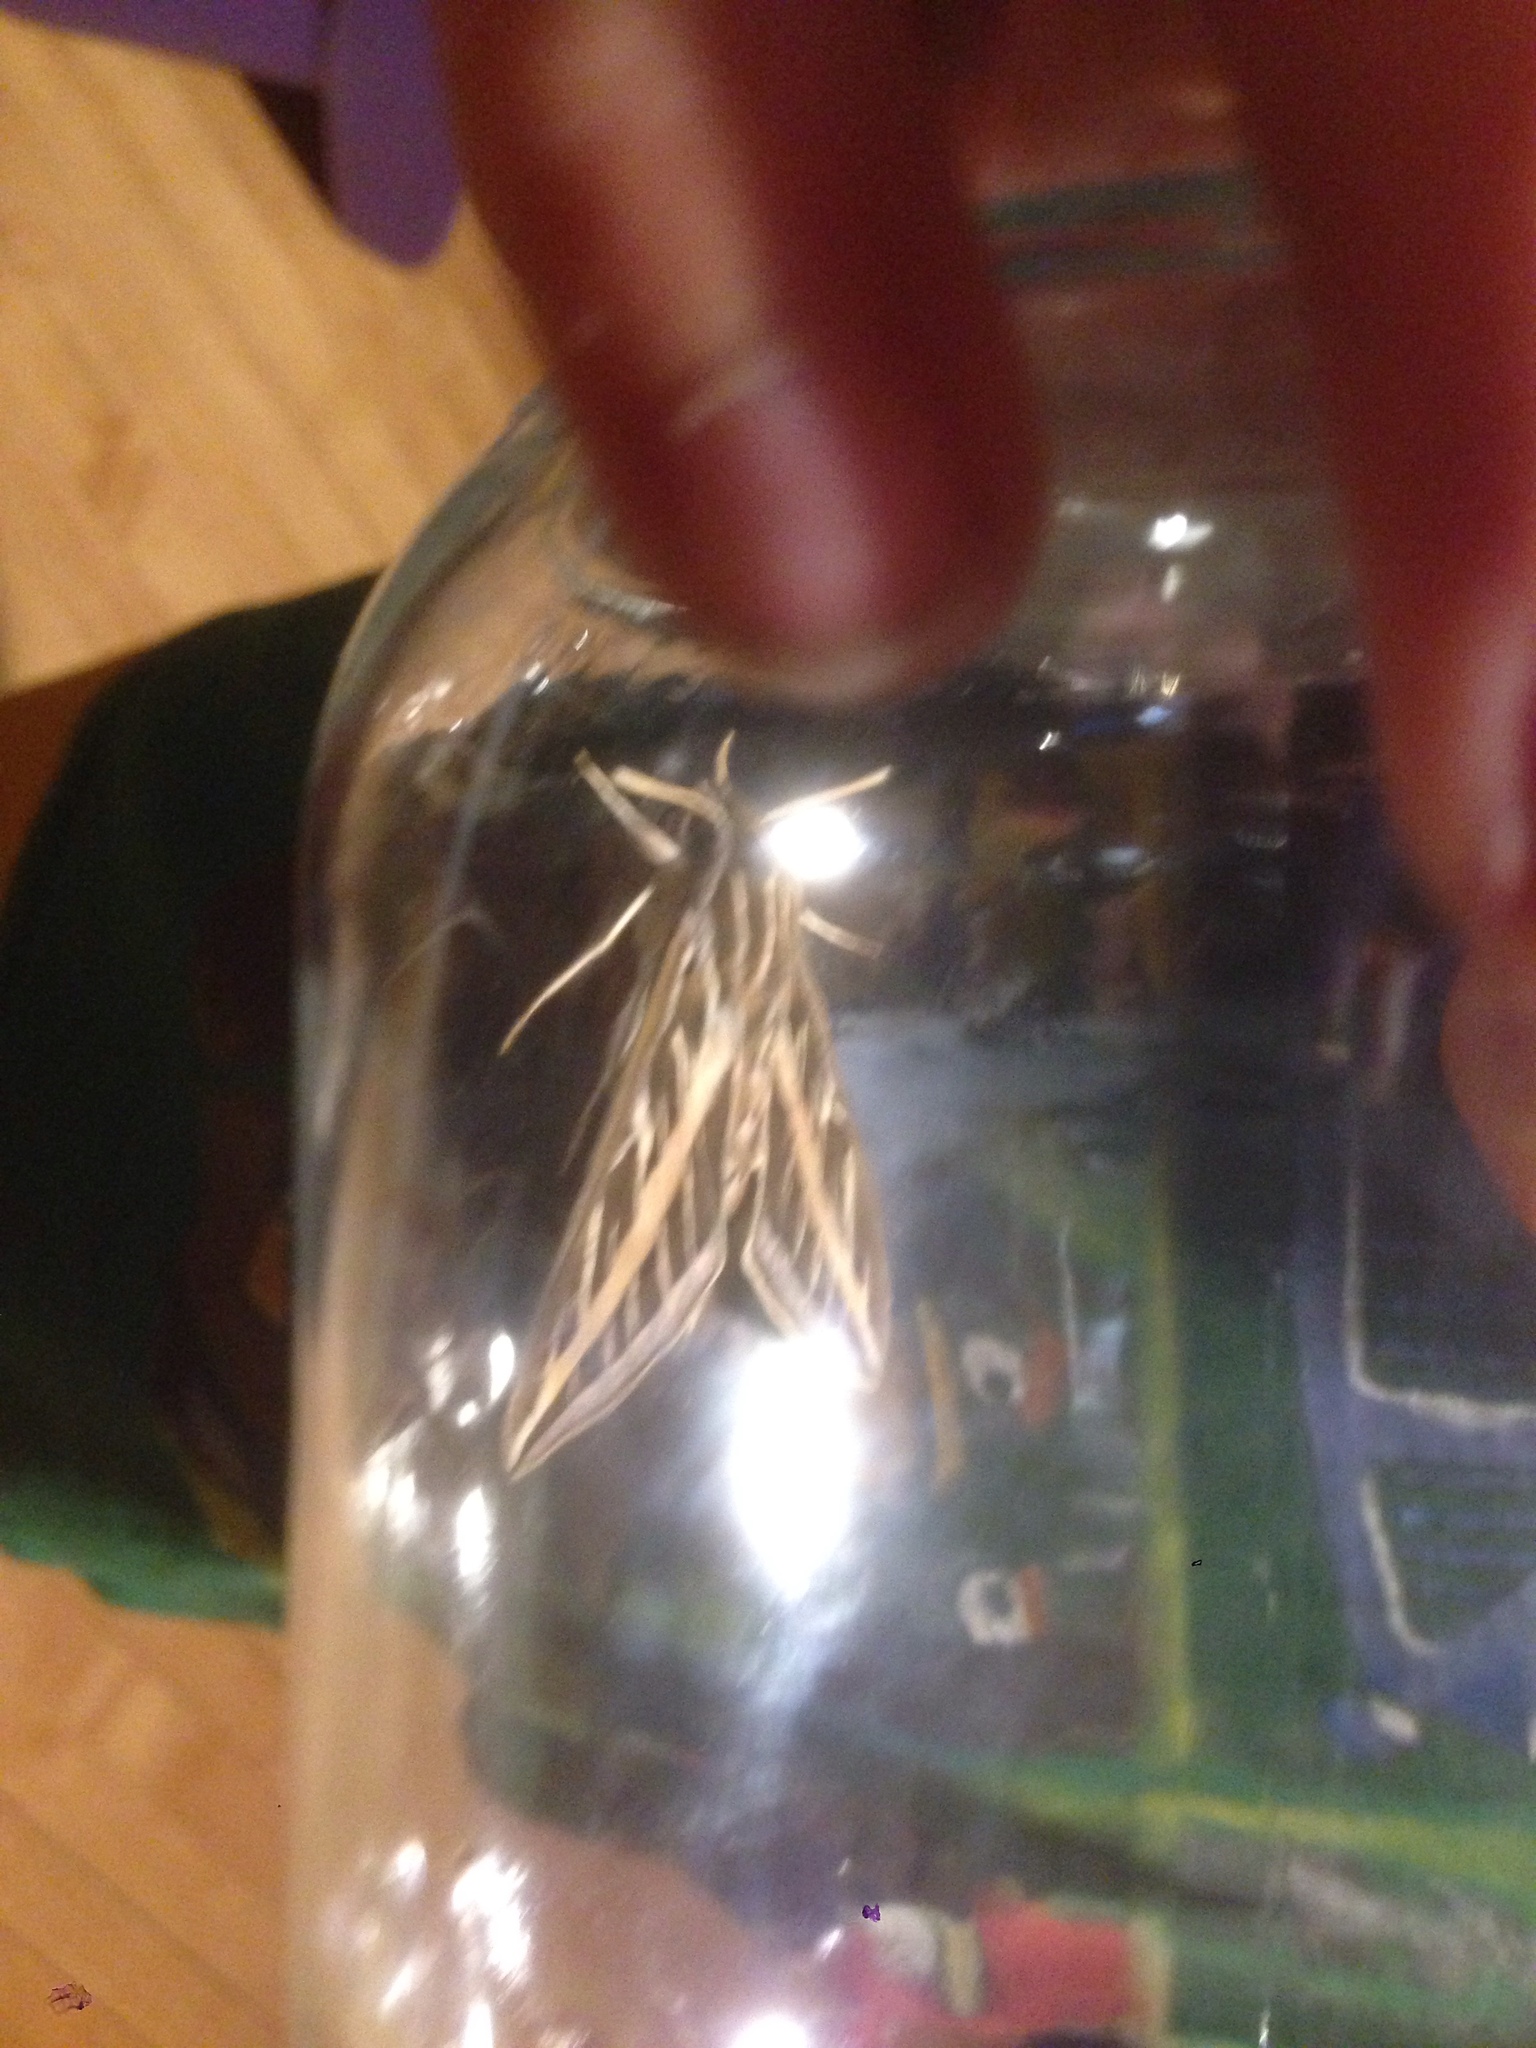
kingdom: Animalia
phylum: Arthropoda
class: Insecta
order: Lepidoptera
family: Sphingidae
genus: Hyles
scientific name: Hyles lineata
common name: White-lined sphinx
